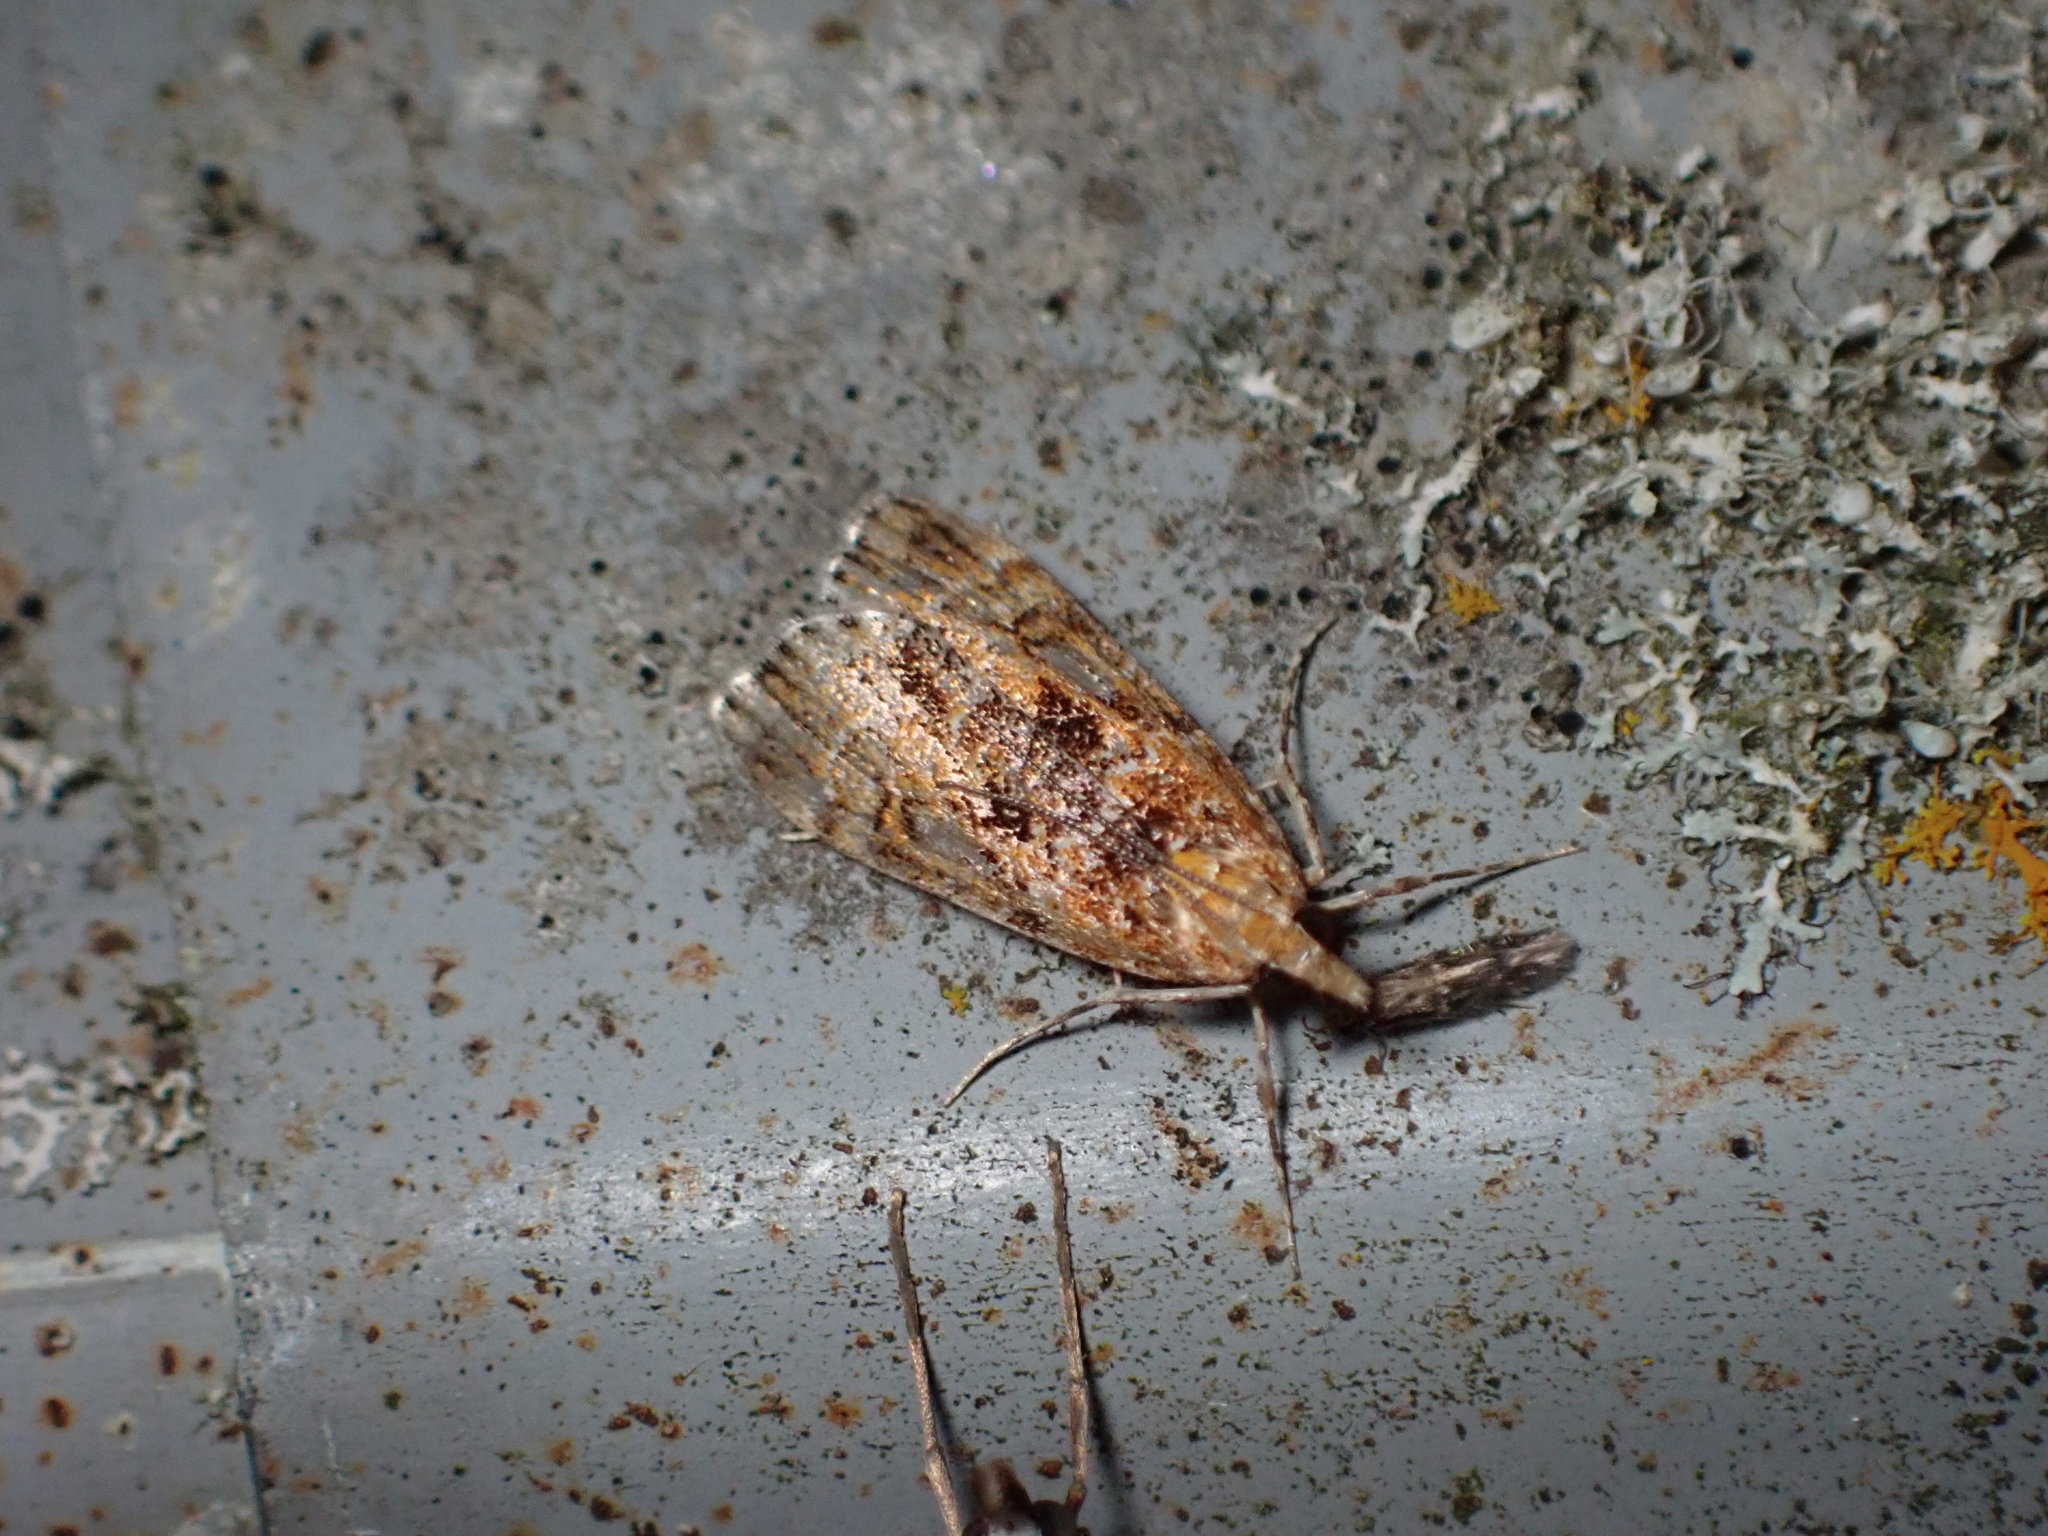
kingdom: Animalia
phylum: Arthropoda
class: Insecta
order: Lepidoptera
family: Crambidae
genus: Scoparia
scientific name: Scoparia animosa
